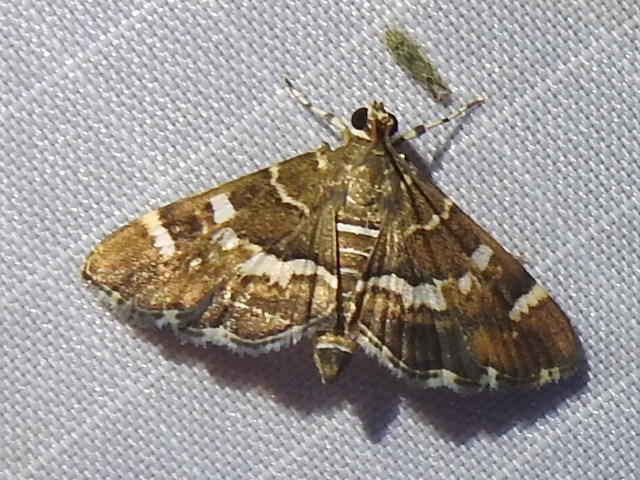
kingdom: Animalia
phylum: Arthropoda
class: Insecta
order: Lepidoptera
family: Crambidae
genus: Hymenia
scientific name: Hymenia perspectalis
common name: Spotted beet webworm
